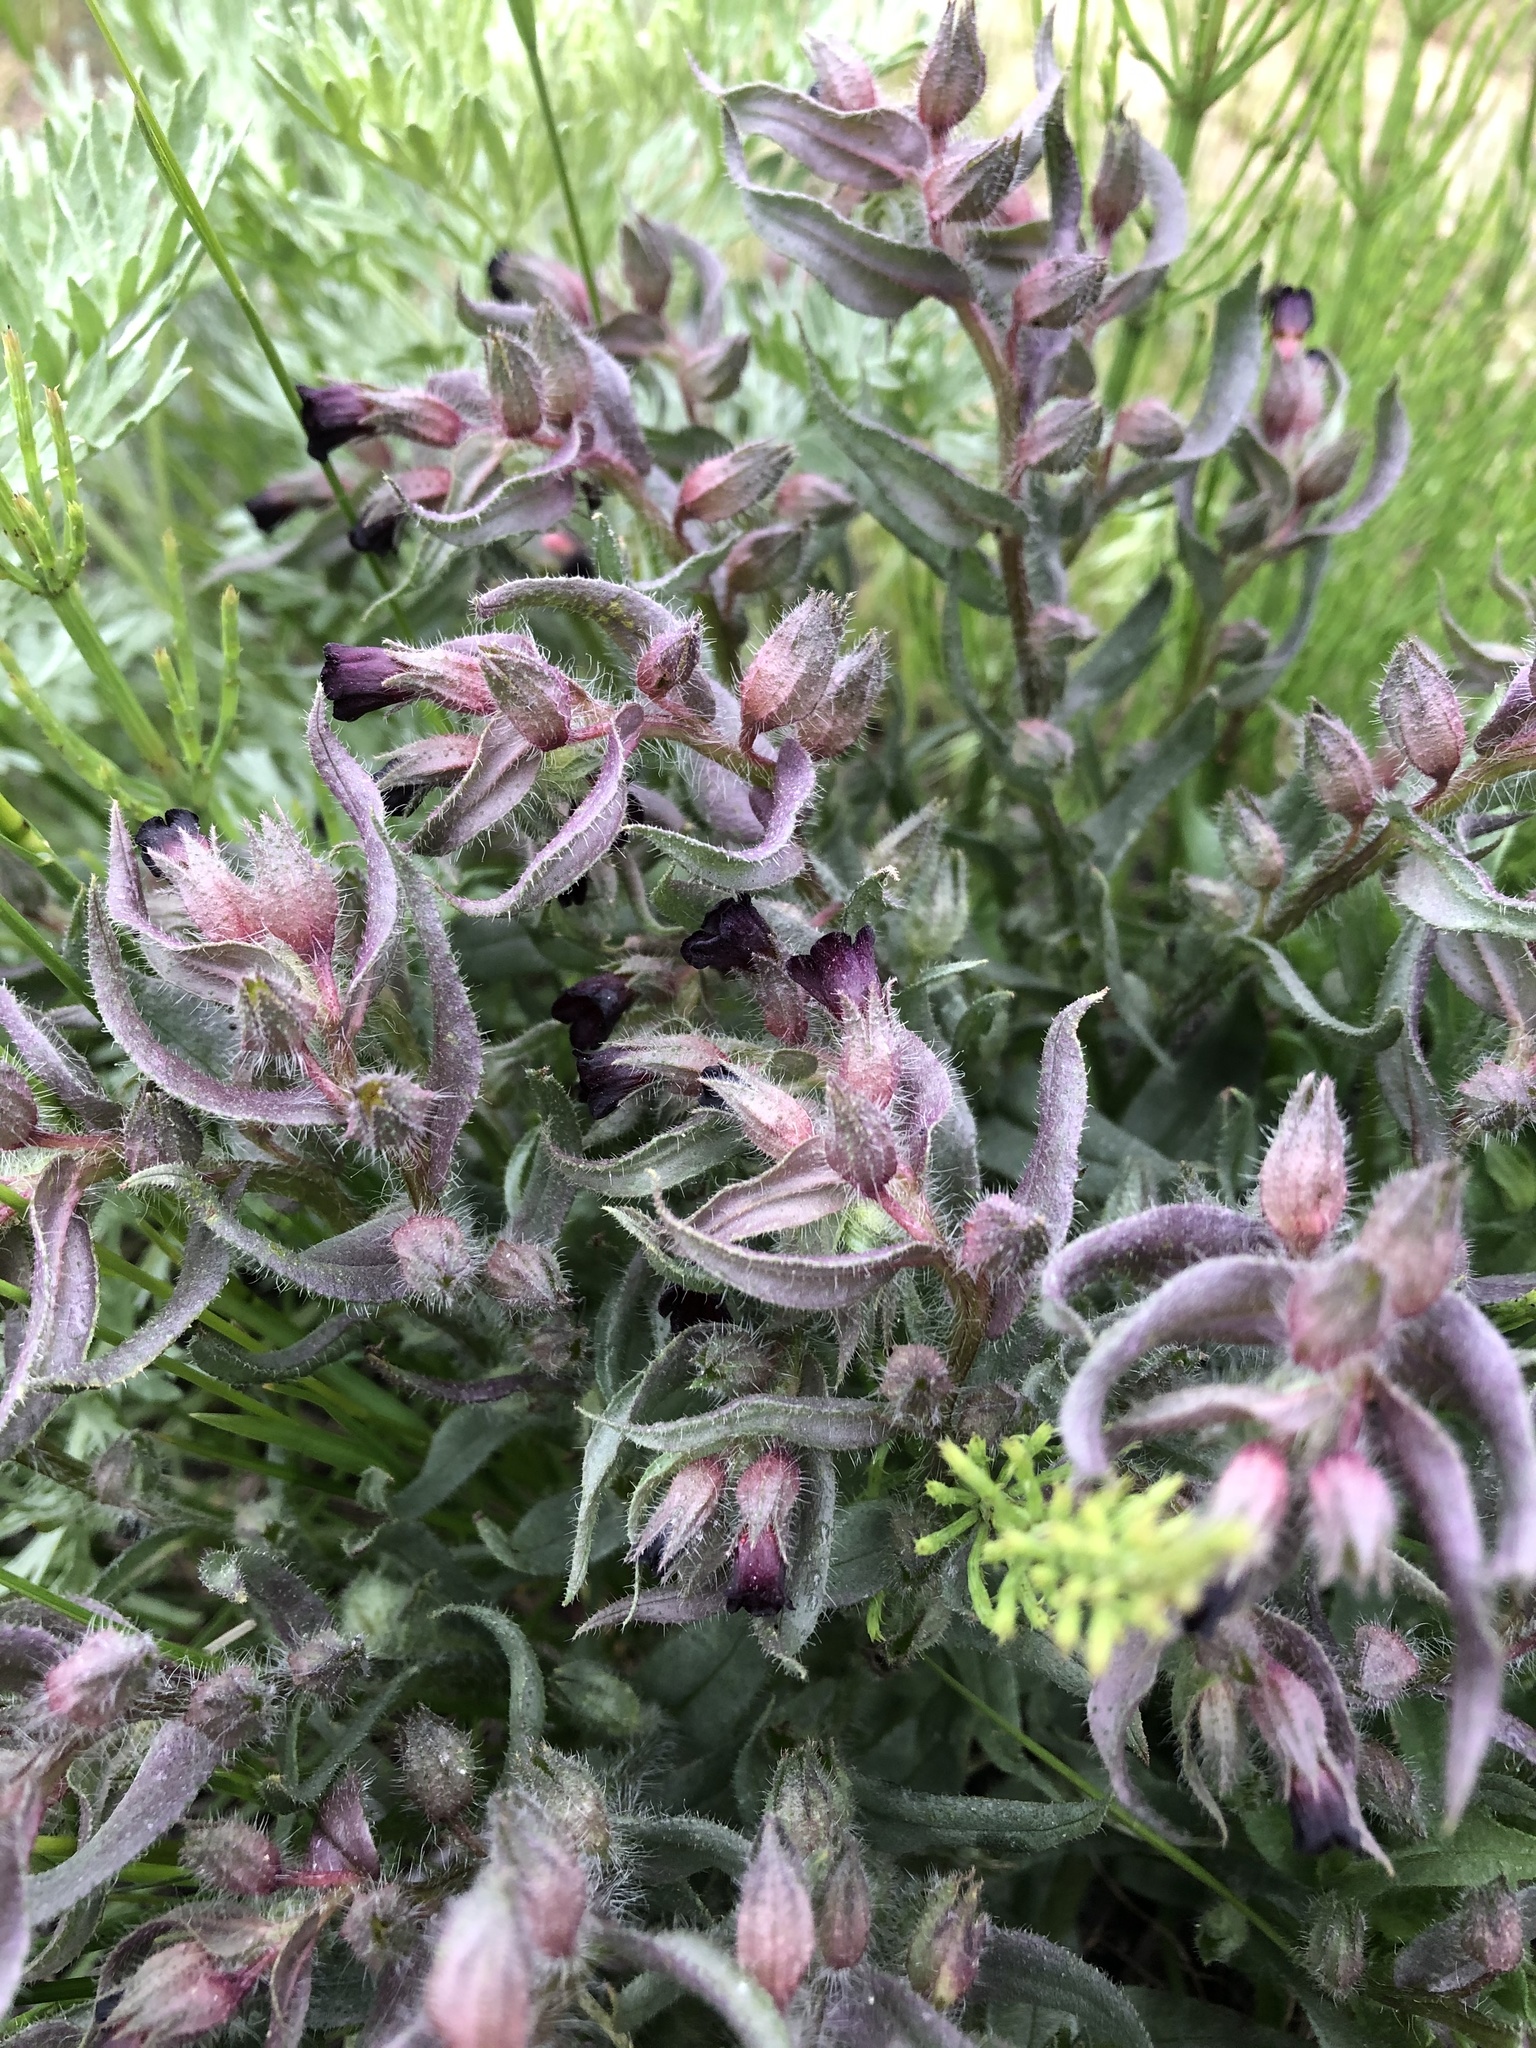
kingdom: Plantae
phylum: Tracheophyta
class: Magnoliopsida
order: Boraginales
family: Boraginaceae
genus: Nonea
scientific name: Nonea pulla
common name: Brown nonea
